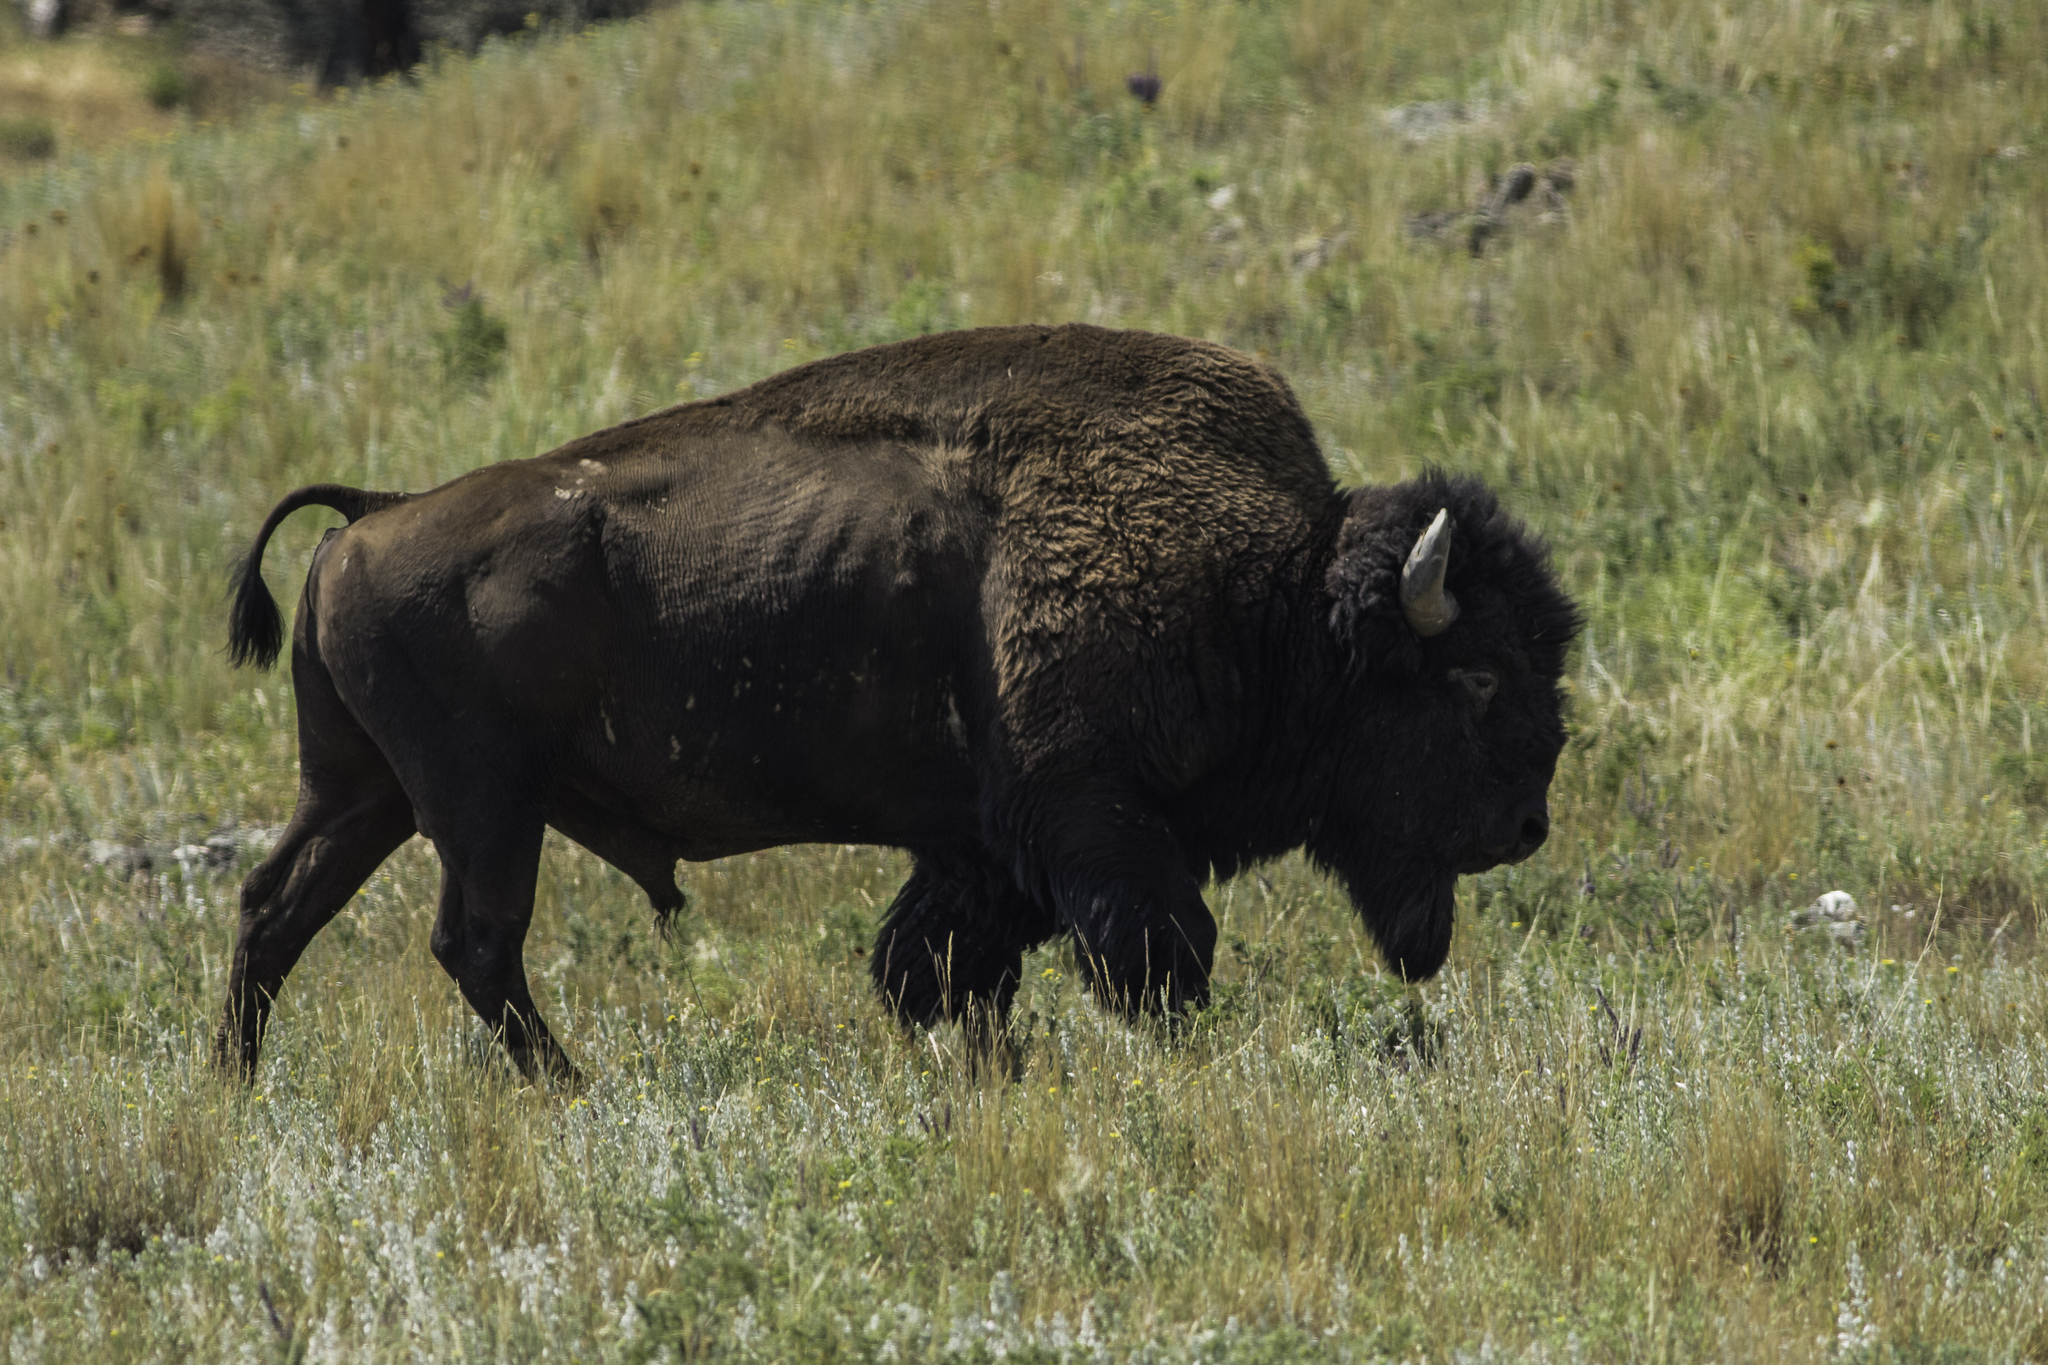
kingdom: Animalia
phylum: Chordata
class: Mammalia
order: Artiodactyla
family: Bovidae
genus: Bison
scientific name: Bison bison
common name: American bison
